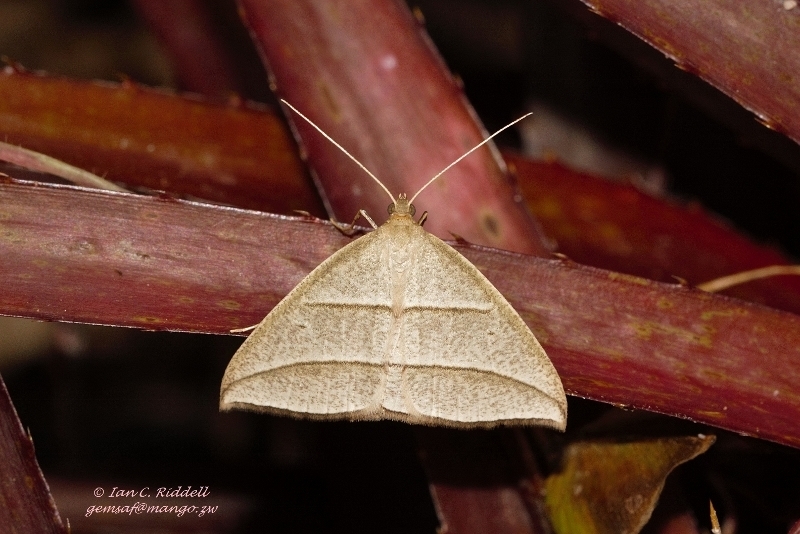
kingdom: Animalia
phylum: Arthropoda
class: Insecta
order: Lepidoptera
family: Geometridae
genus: Afrophyla
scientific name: Afrophyla vethi
